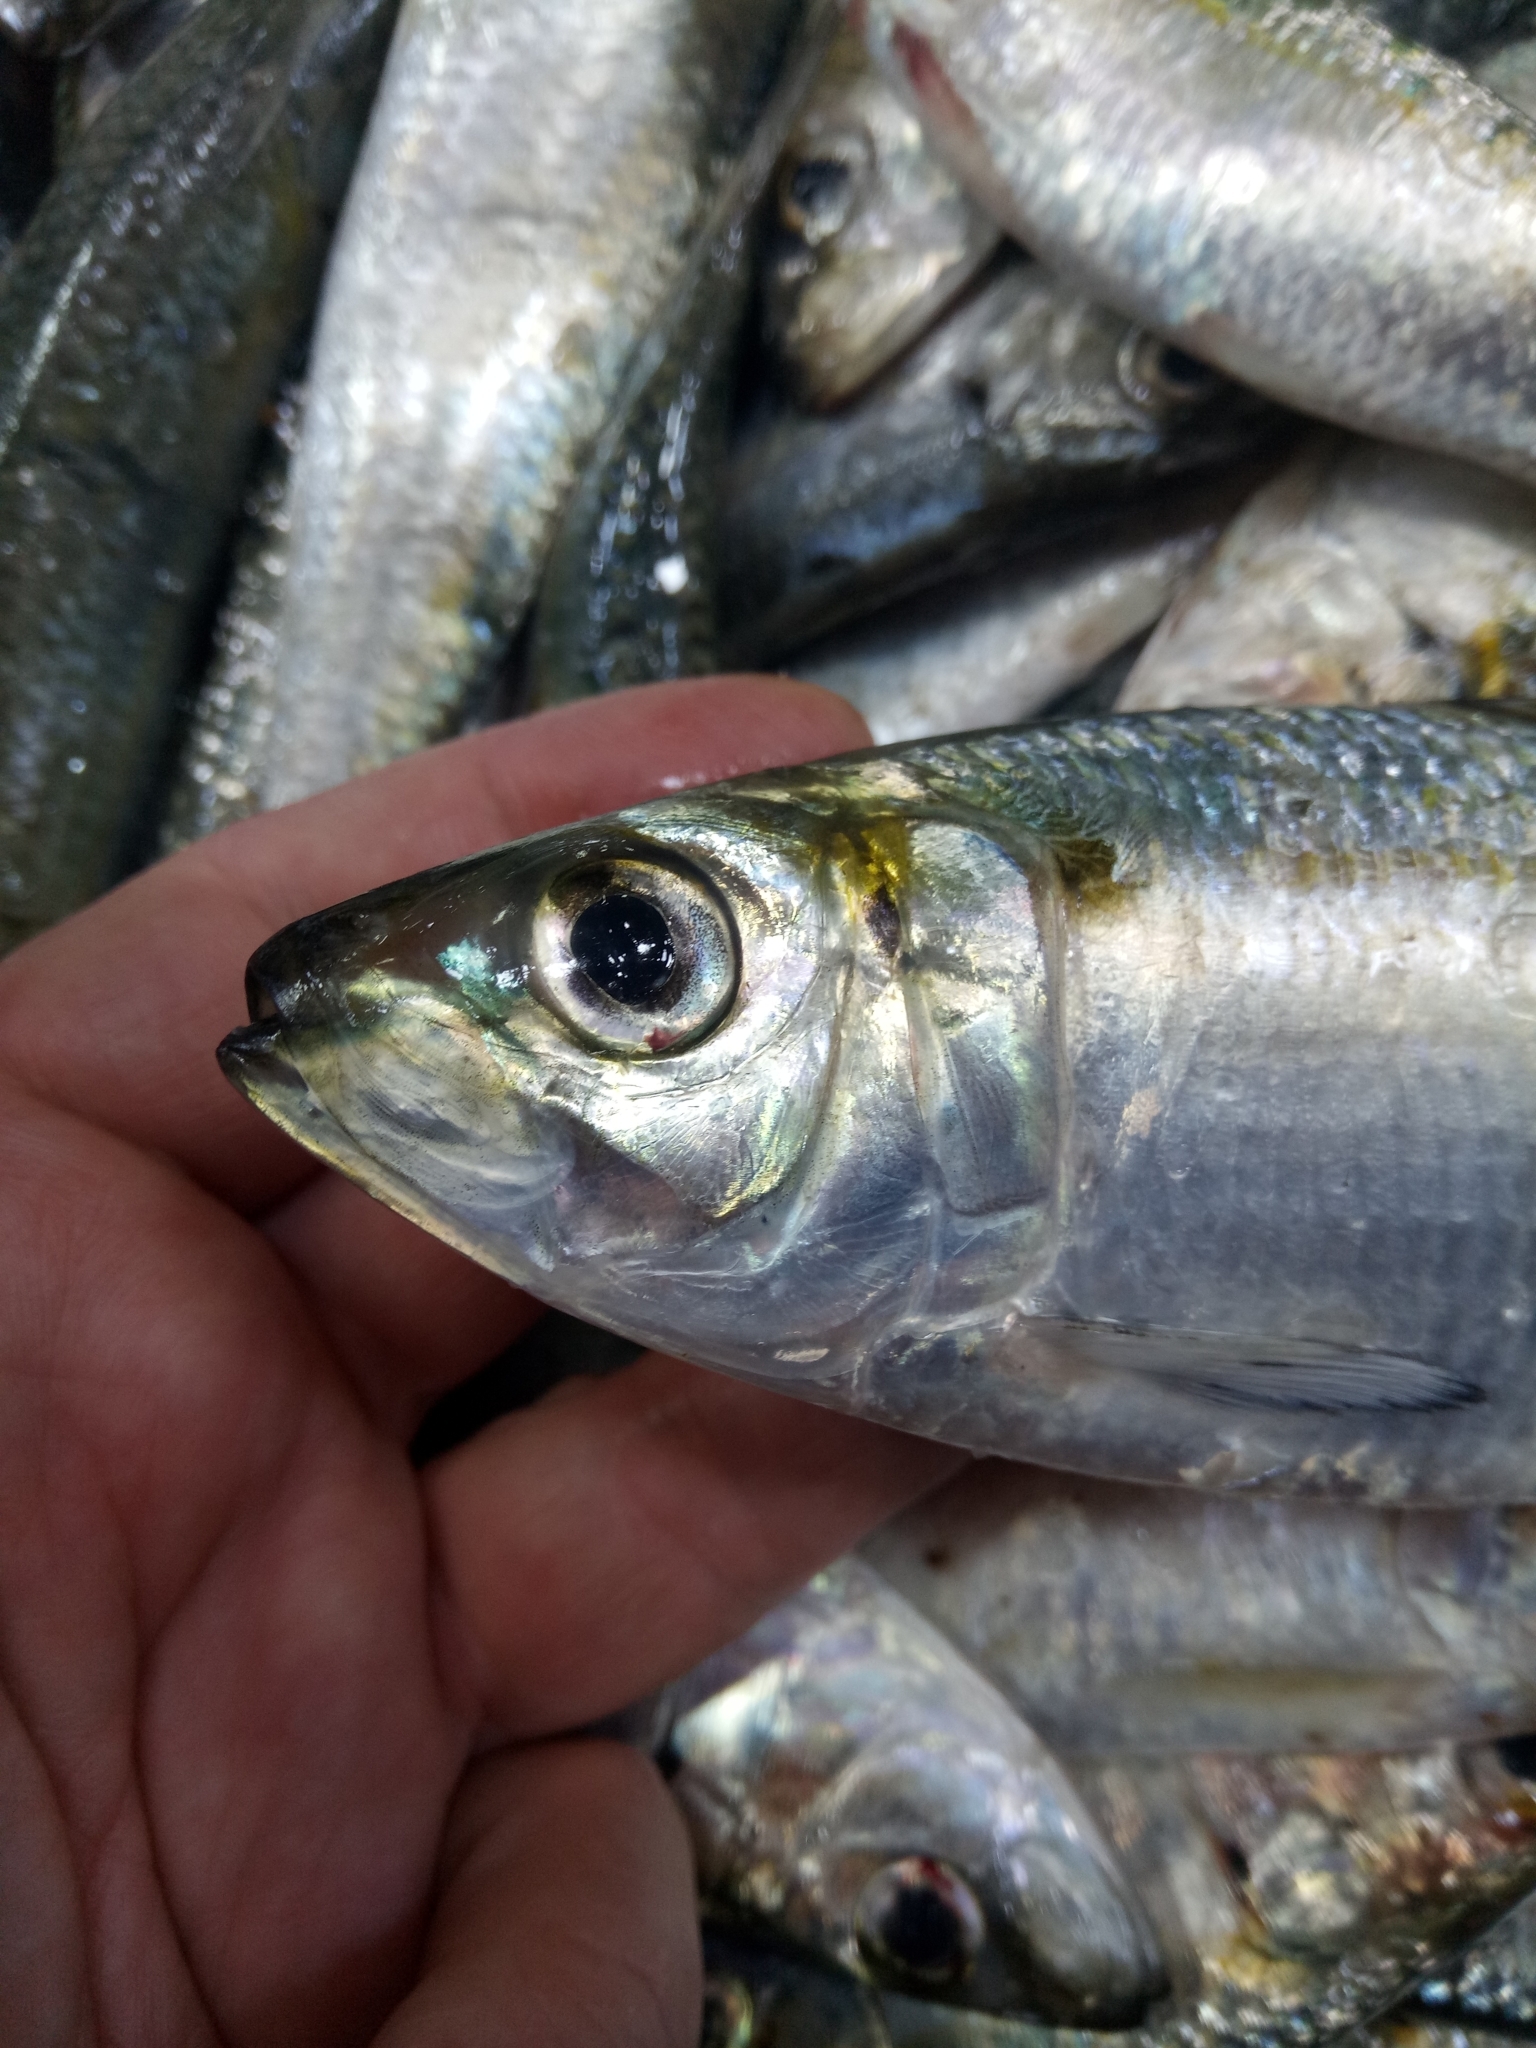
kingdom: Animalia
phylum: Chordata
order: Clupeiformes
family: Clupeidae
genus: Sardinella
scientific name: Sardinella aurita
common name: Round sardinella
